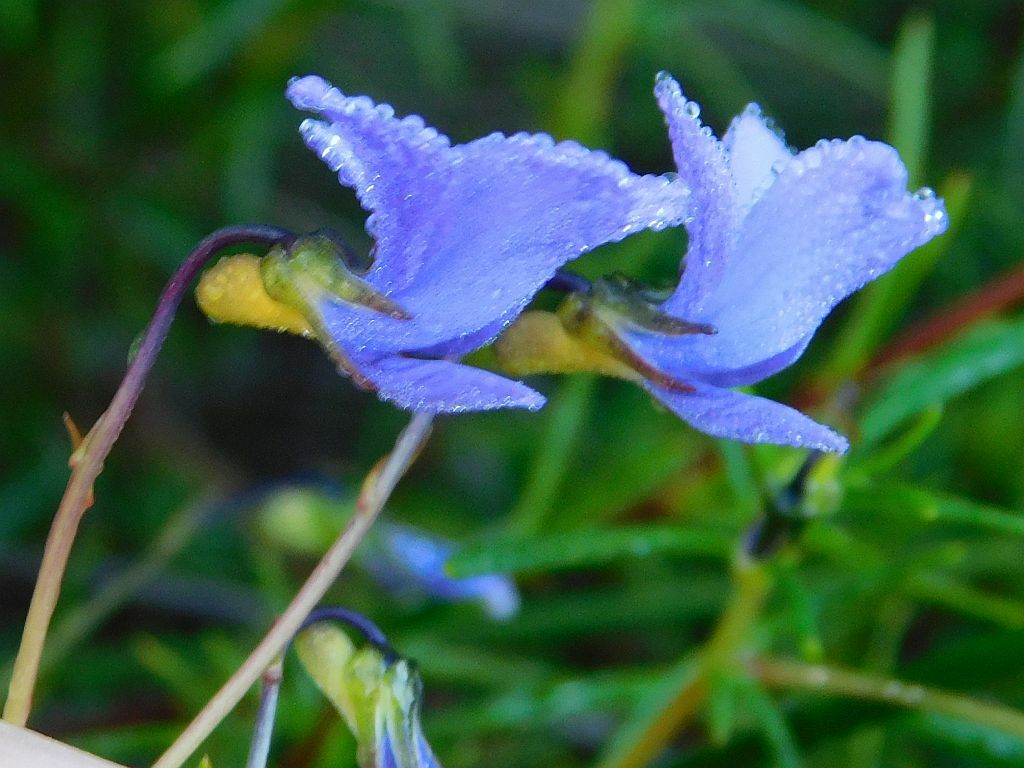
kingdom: Plantae
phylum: Tracheophyta
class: Magnoliopsida
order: Malpighiales
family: Violaceae
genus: Viola
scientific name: Viola decumbens
